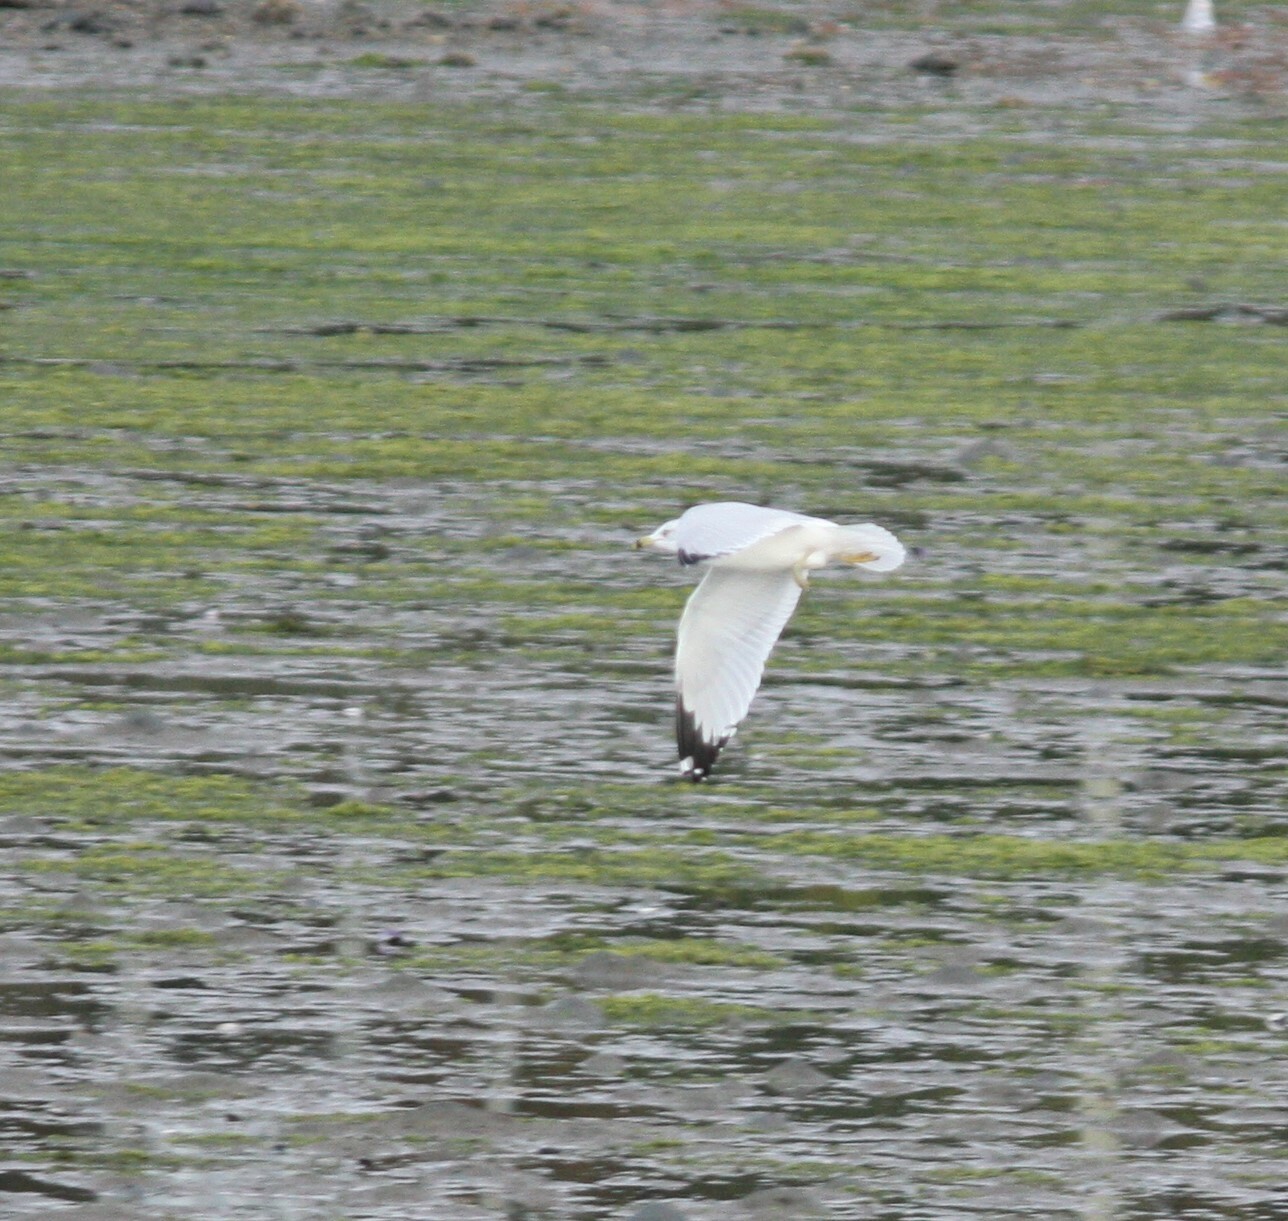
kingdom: Animalia
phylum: Chordata
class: Aves
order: Charadriiformes
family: Laridae
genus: Larus
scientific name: Larus delawarensis
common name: Ring-billed gull
